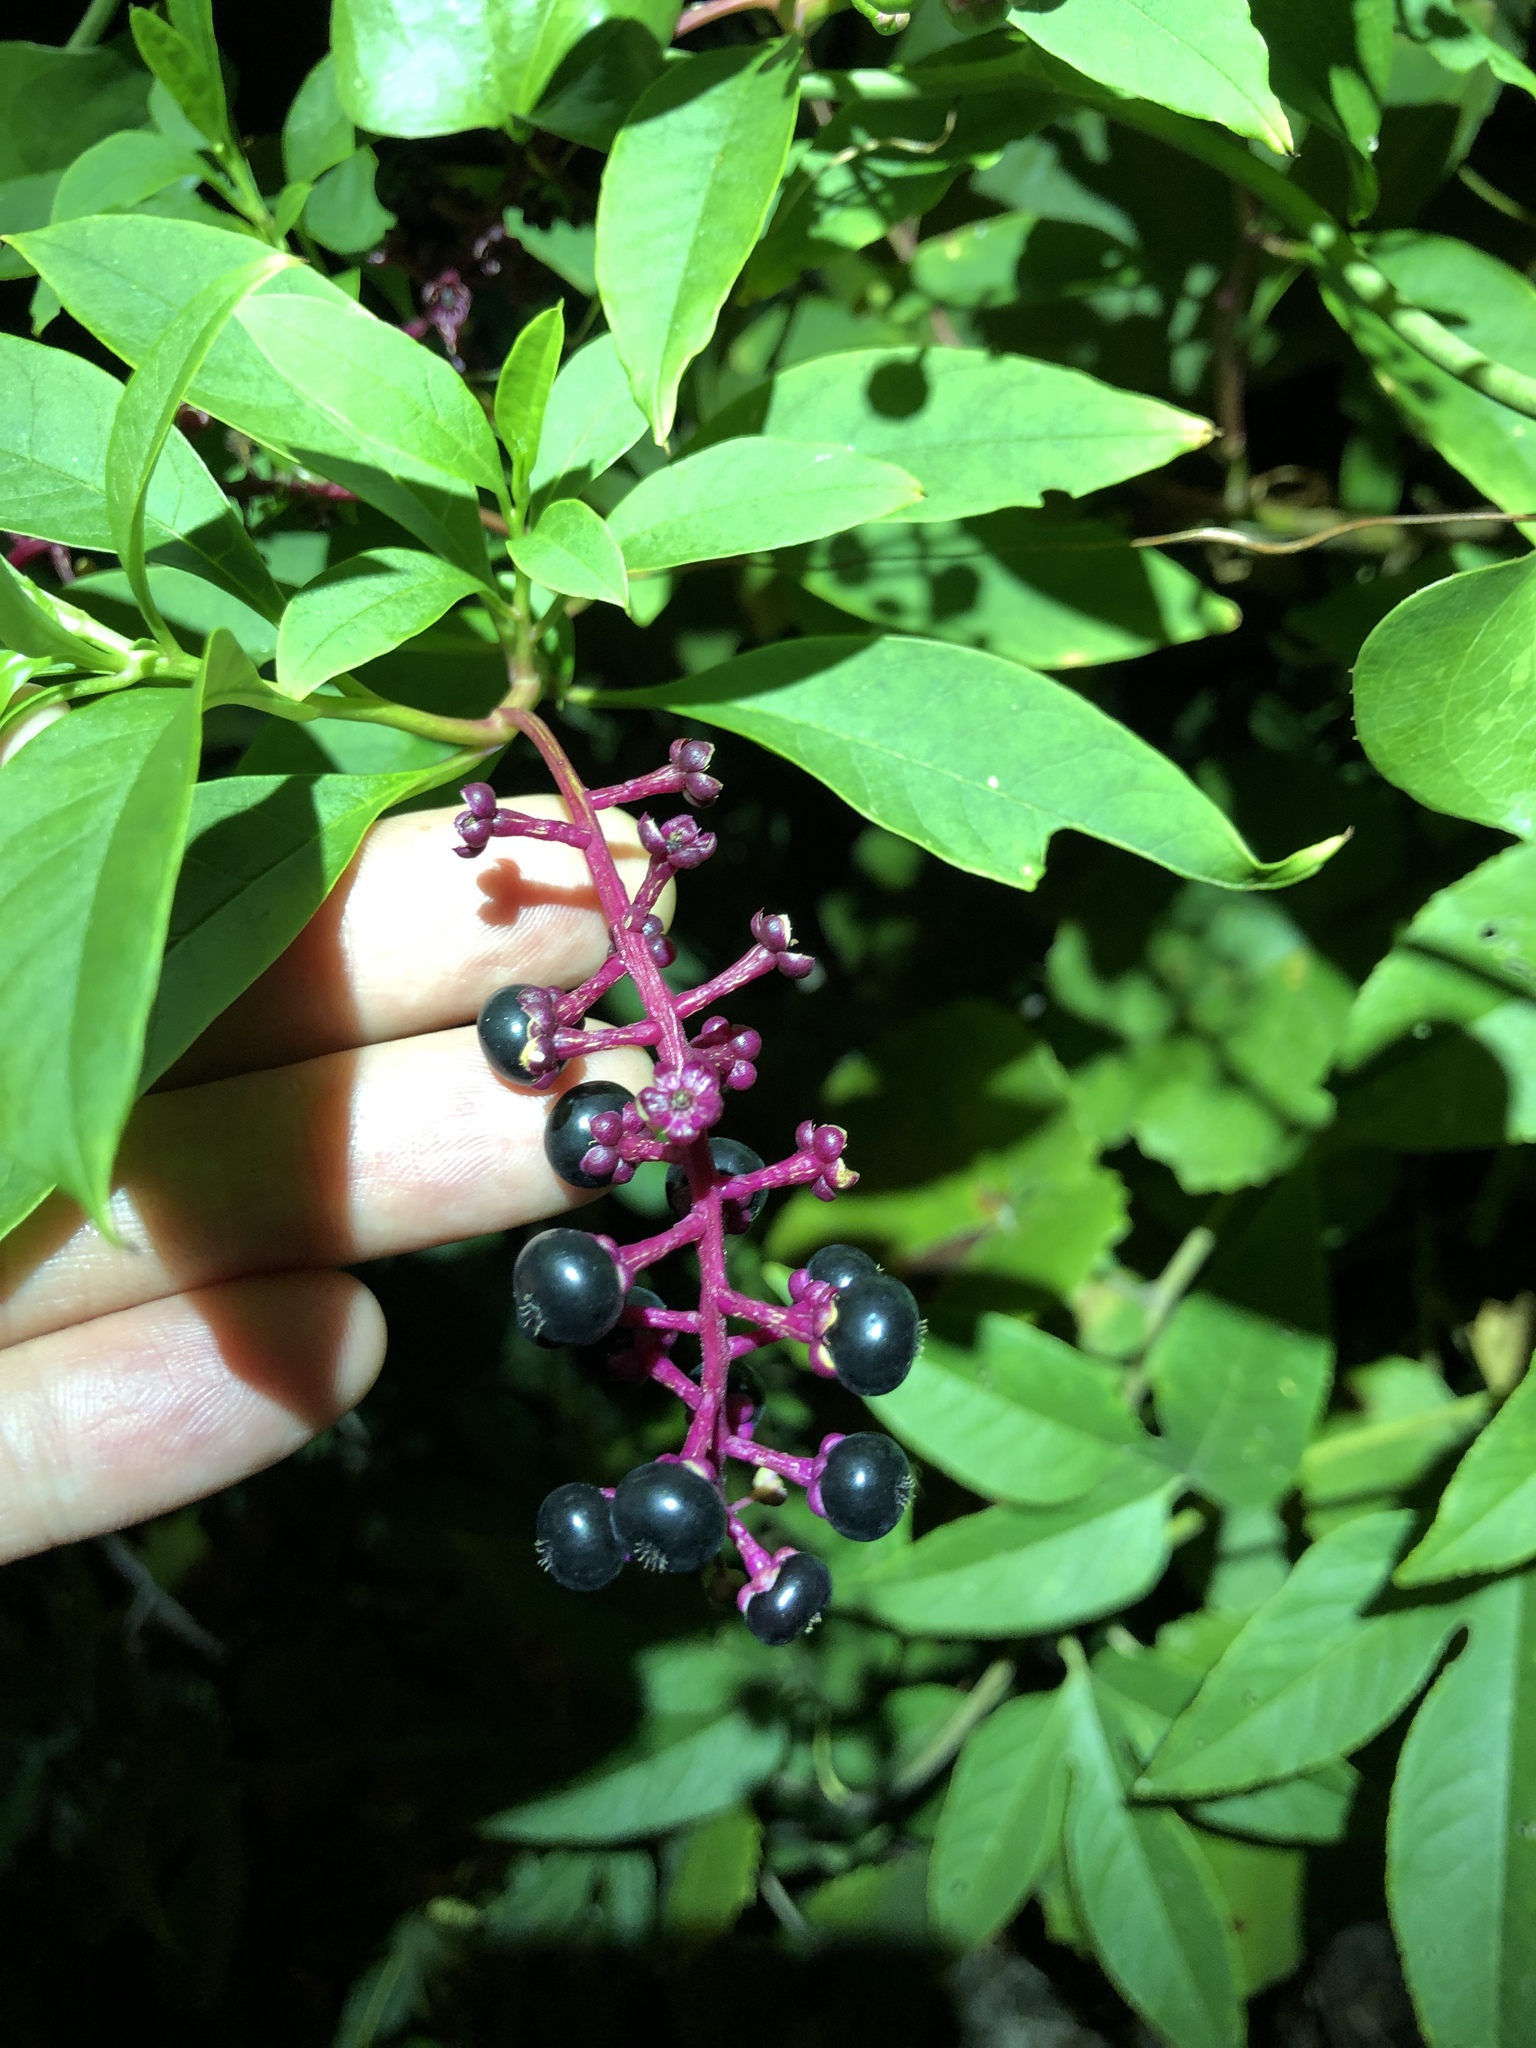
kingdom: Plantae
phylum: Tracheophyta
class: Magnoliopsida
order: Caryophyllales
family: Phytolaccaceae
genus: Phytolacca
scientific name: Phytolacca americana
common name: American pokeweed
